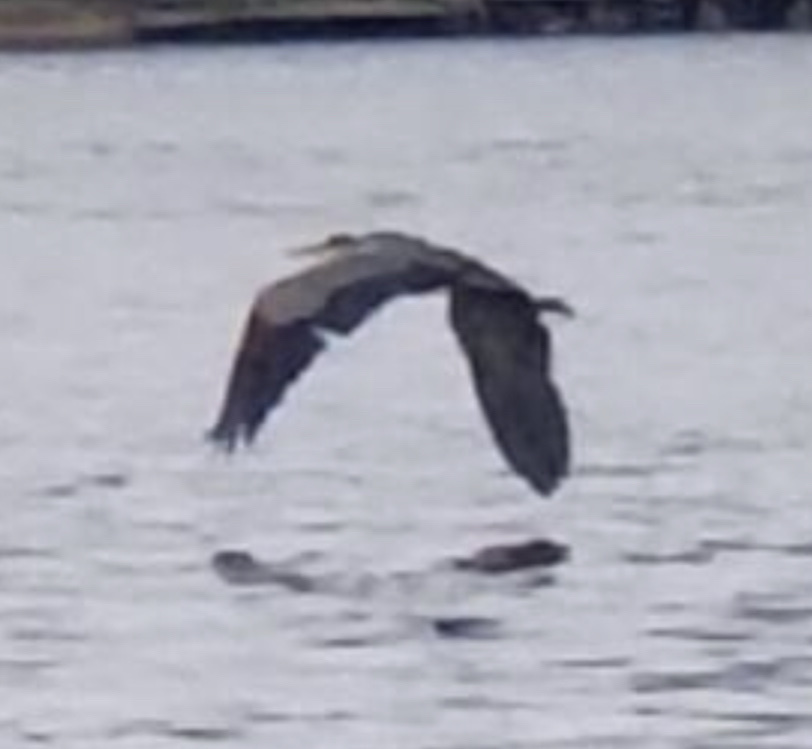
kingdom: Animalia
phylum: Chordata
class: Aves
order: Pelecaniformes
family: Ardeidae
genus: Ardea
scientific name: Ardea herodias
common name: Great blue heron
